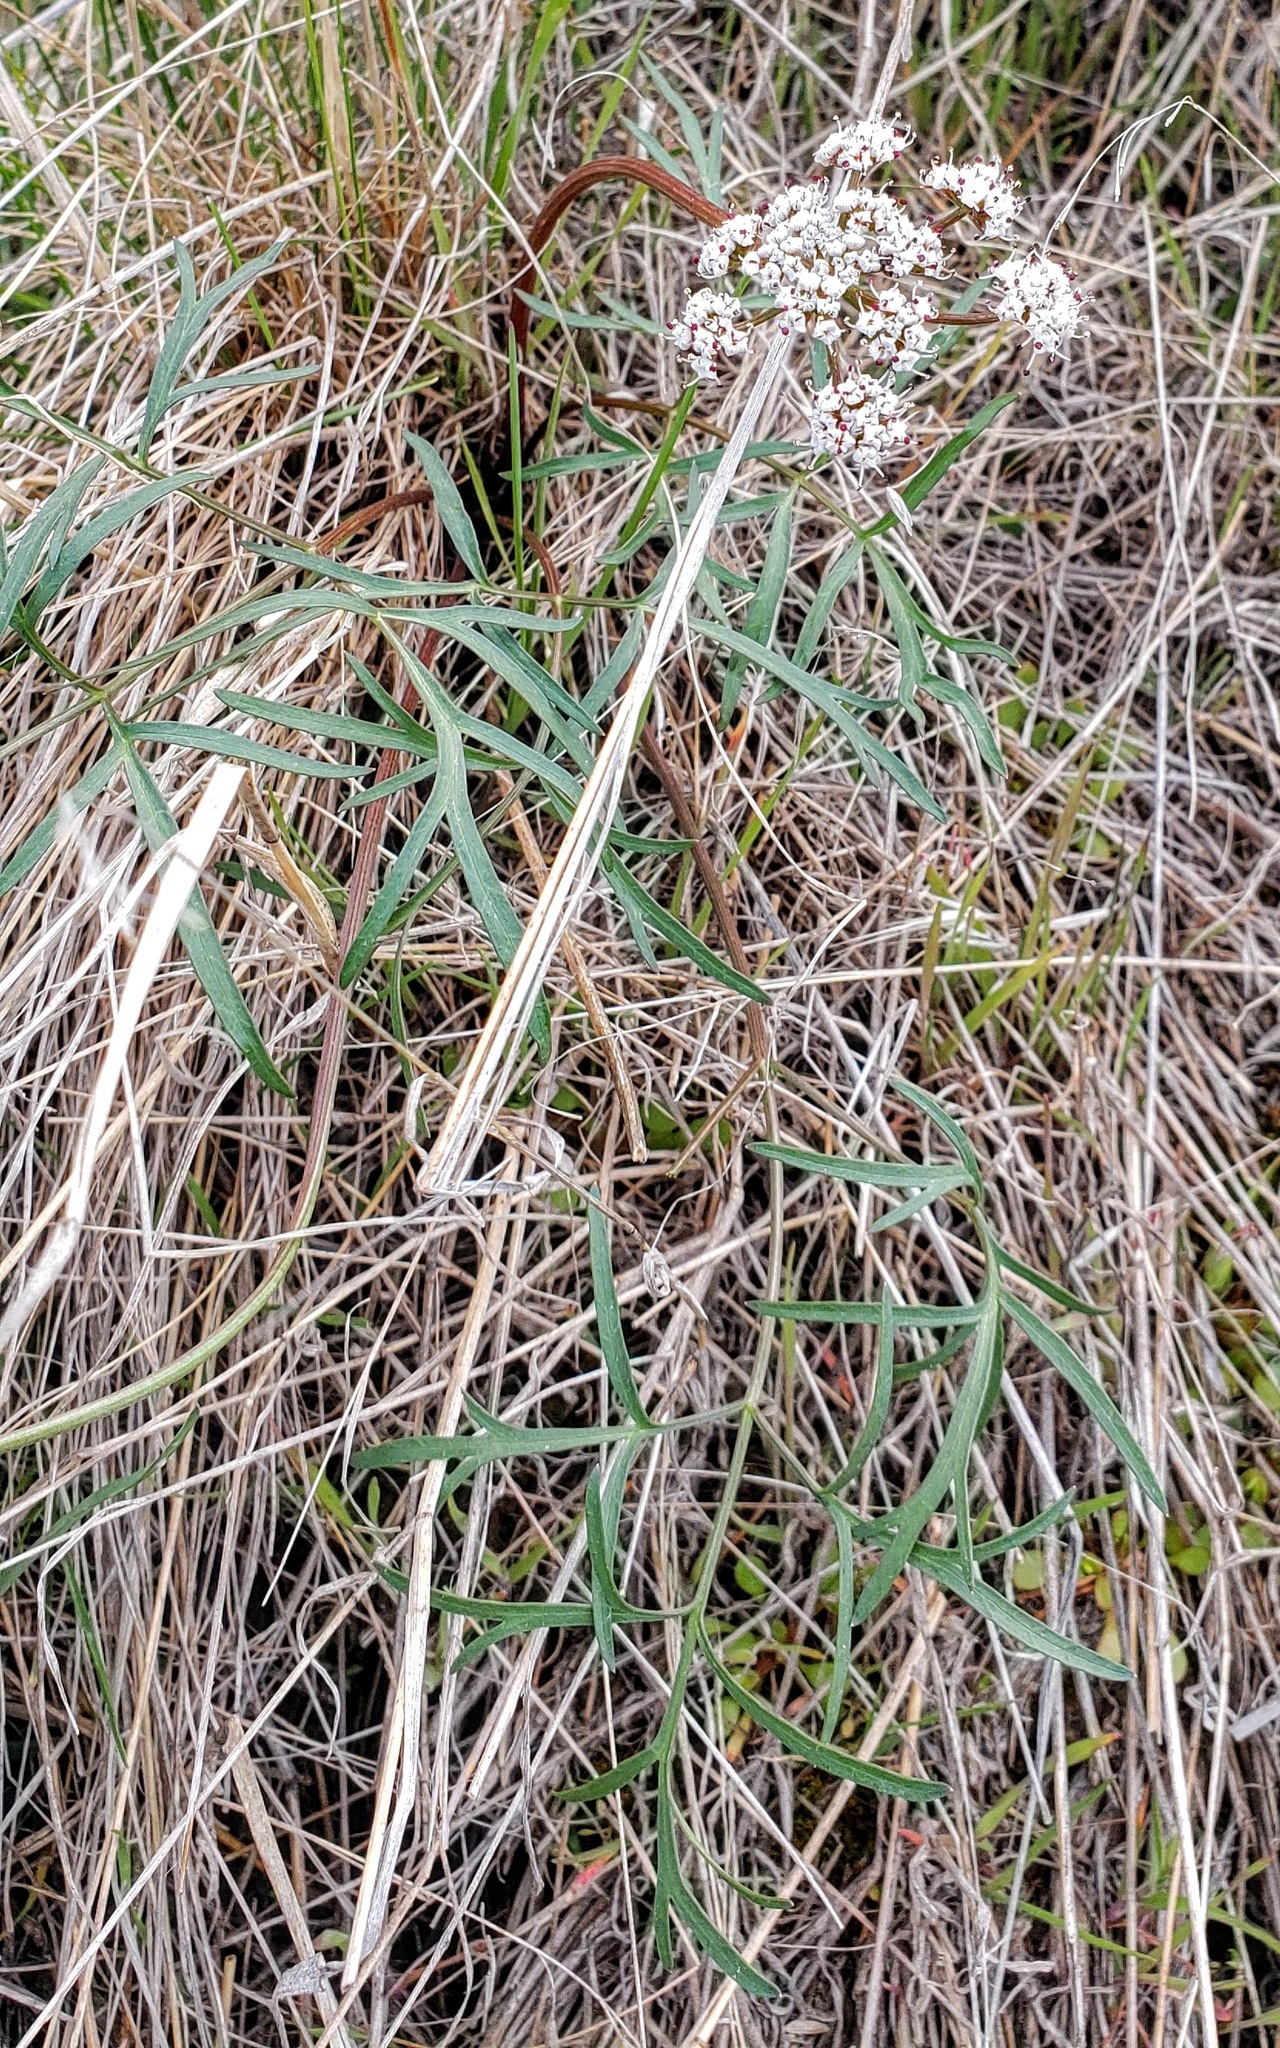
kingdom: Plantae
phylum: Tracheophyta
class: Magnoliopsida
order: Apiales
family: Apiaceae
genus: Lomatium
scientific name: Lomatium geyeri
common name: Geyer's biscuitroot
